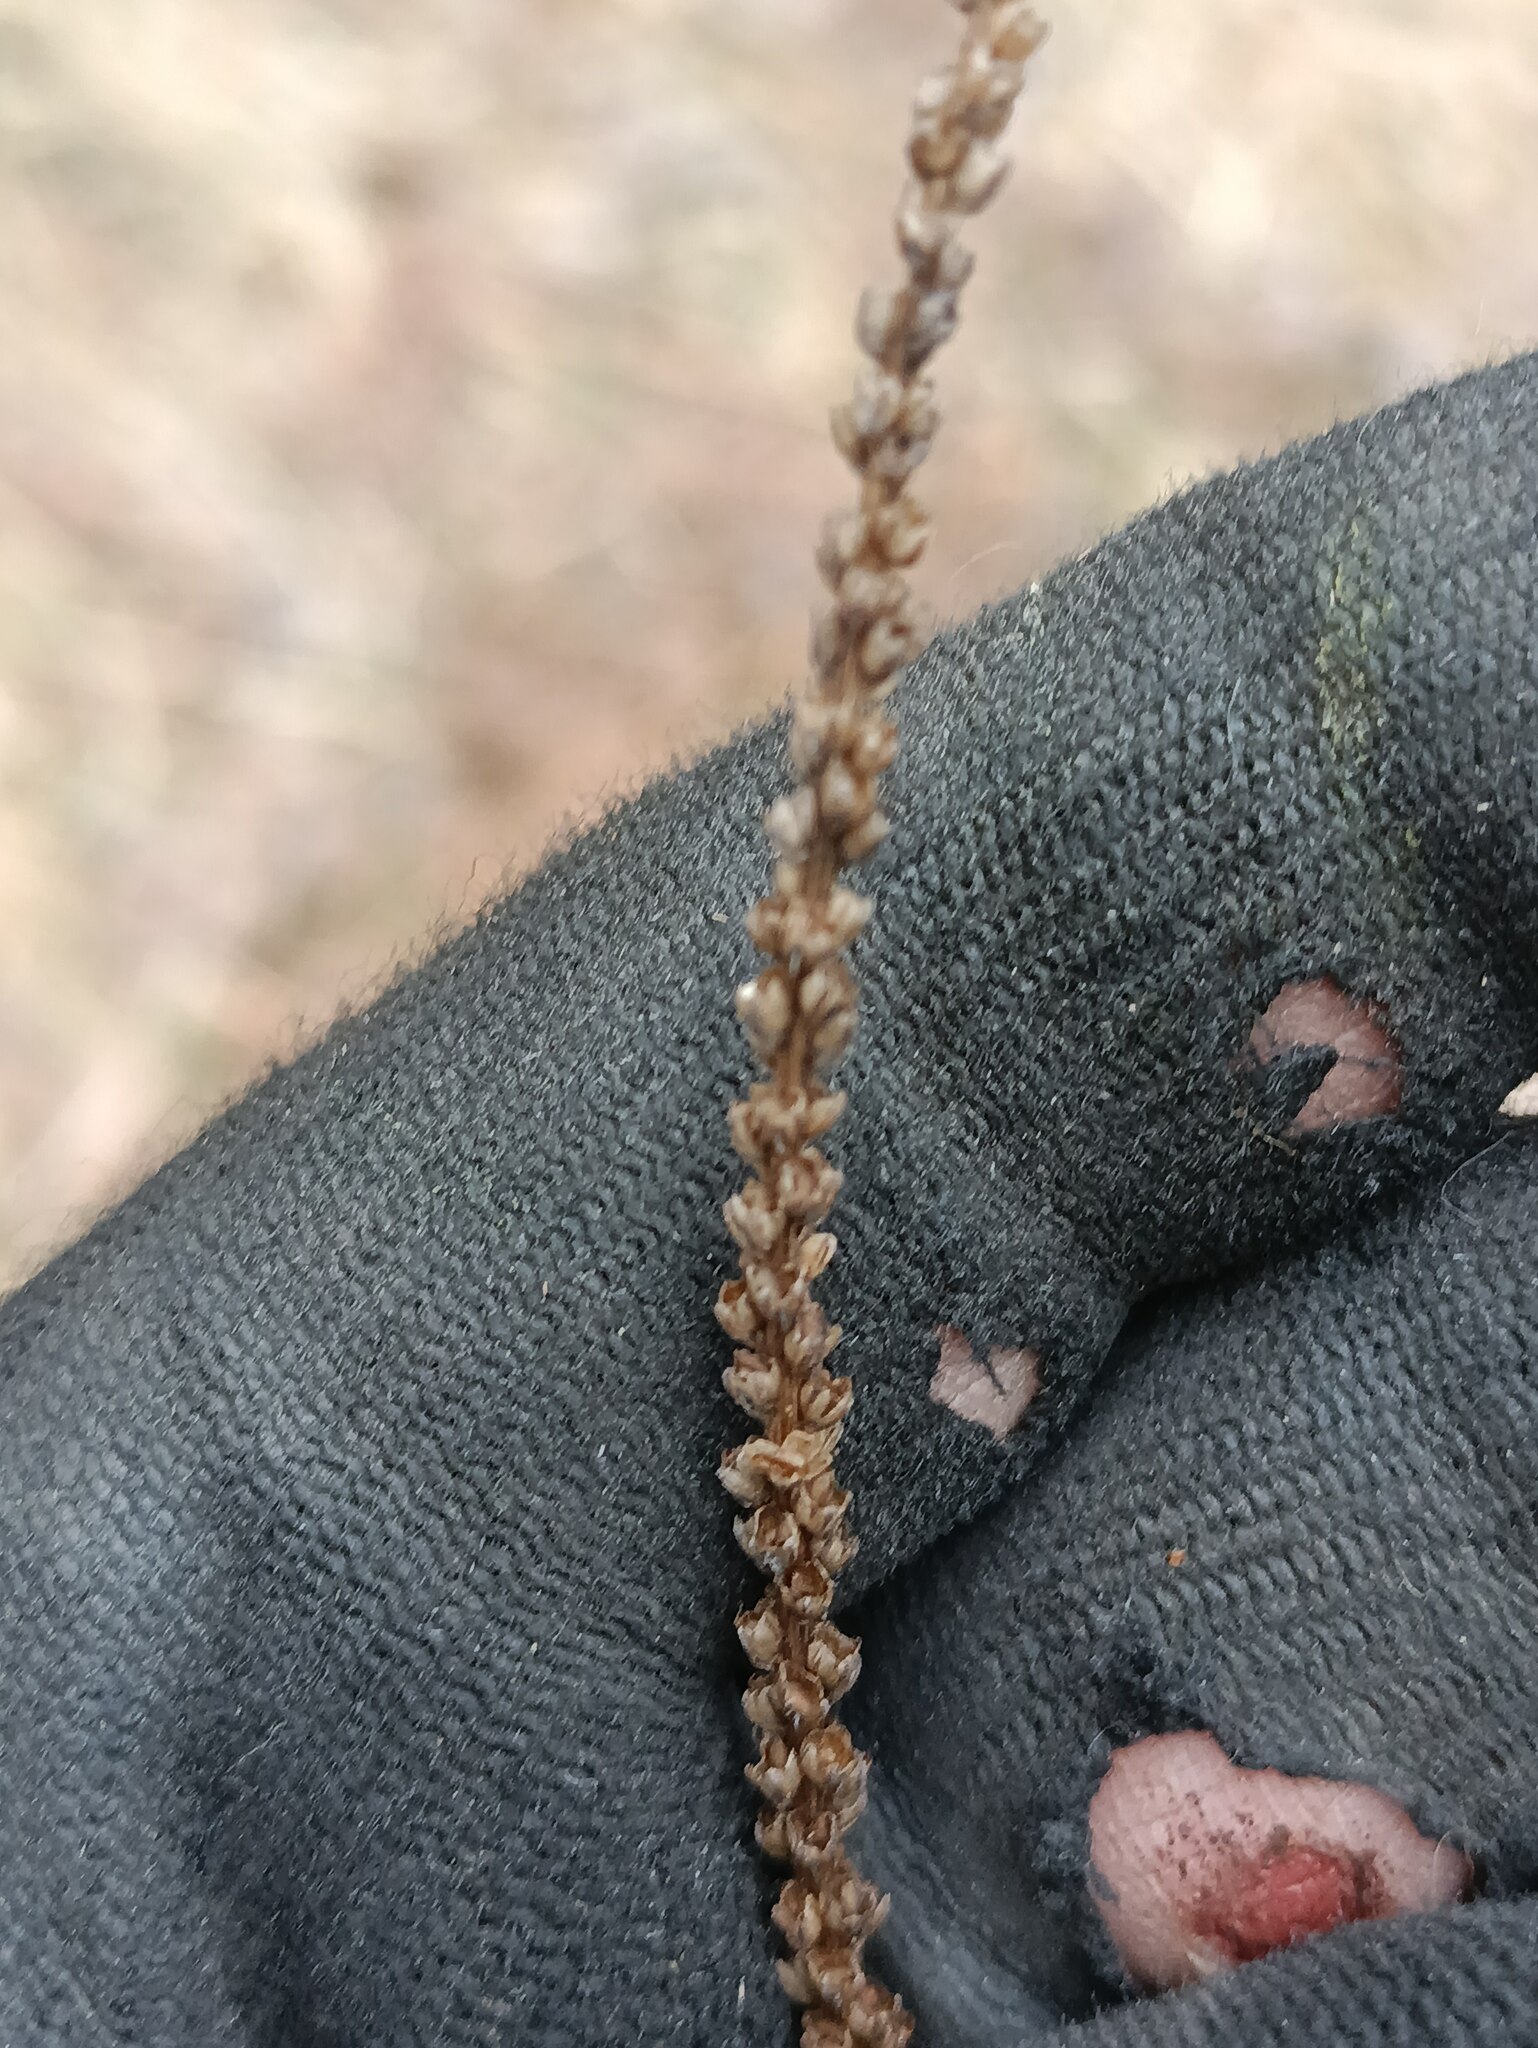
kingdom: Plantae
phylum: Tracheophyta
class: Magnoliopsida
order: Lamiales
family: Plantaginaceae
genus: Plantago
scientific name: Plantago major
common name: Common plantain
